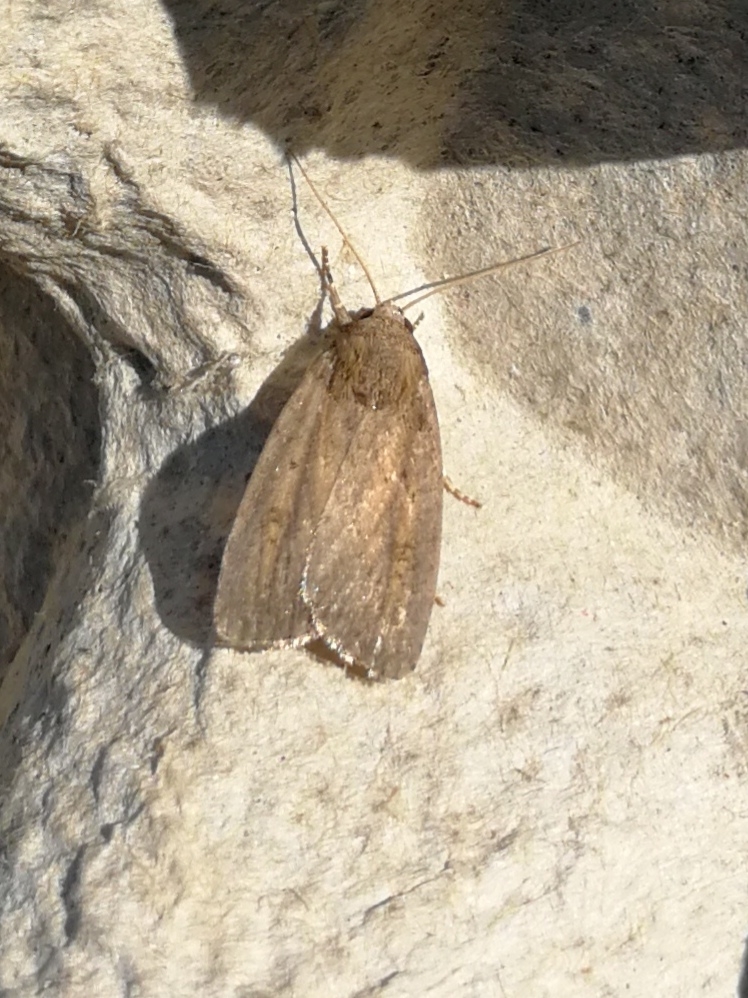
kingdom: Animalia
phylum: Arthropoda
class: Insecta
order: Lepidoptera
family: Noctuidae
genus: Athetis
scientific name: Athetis hospes
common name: Porter's rustic
